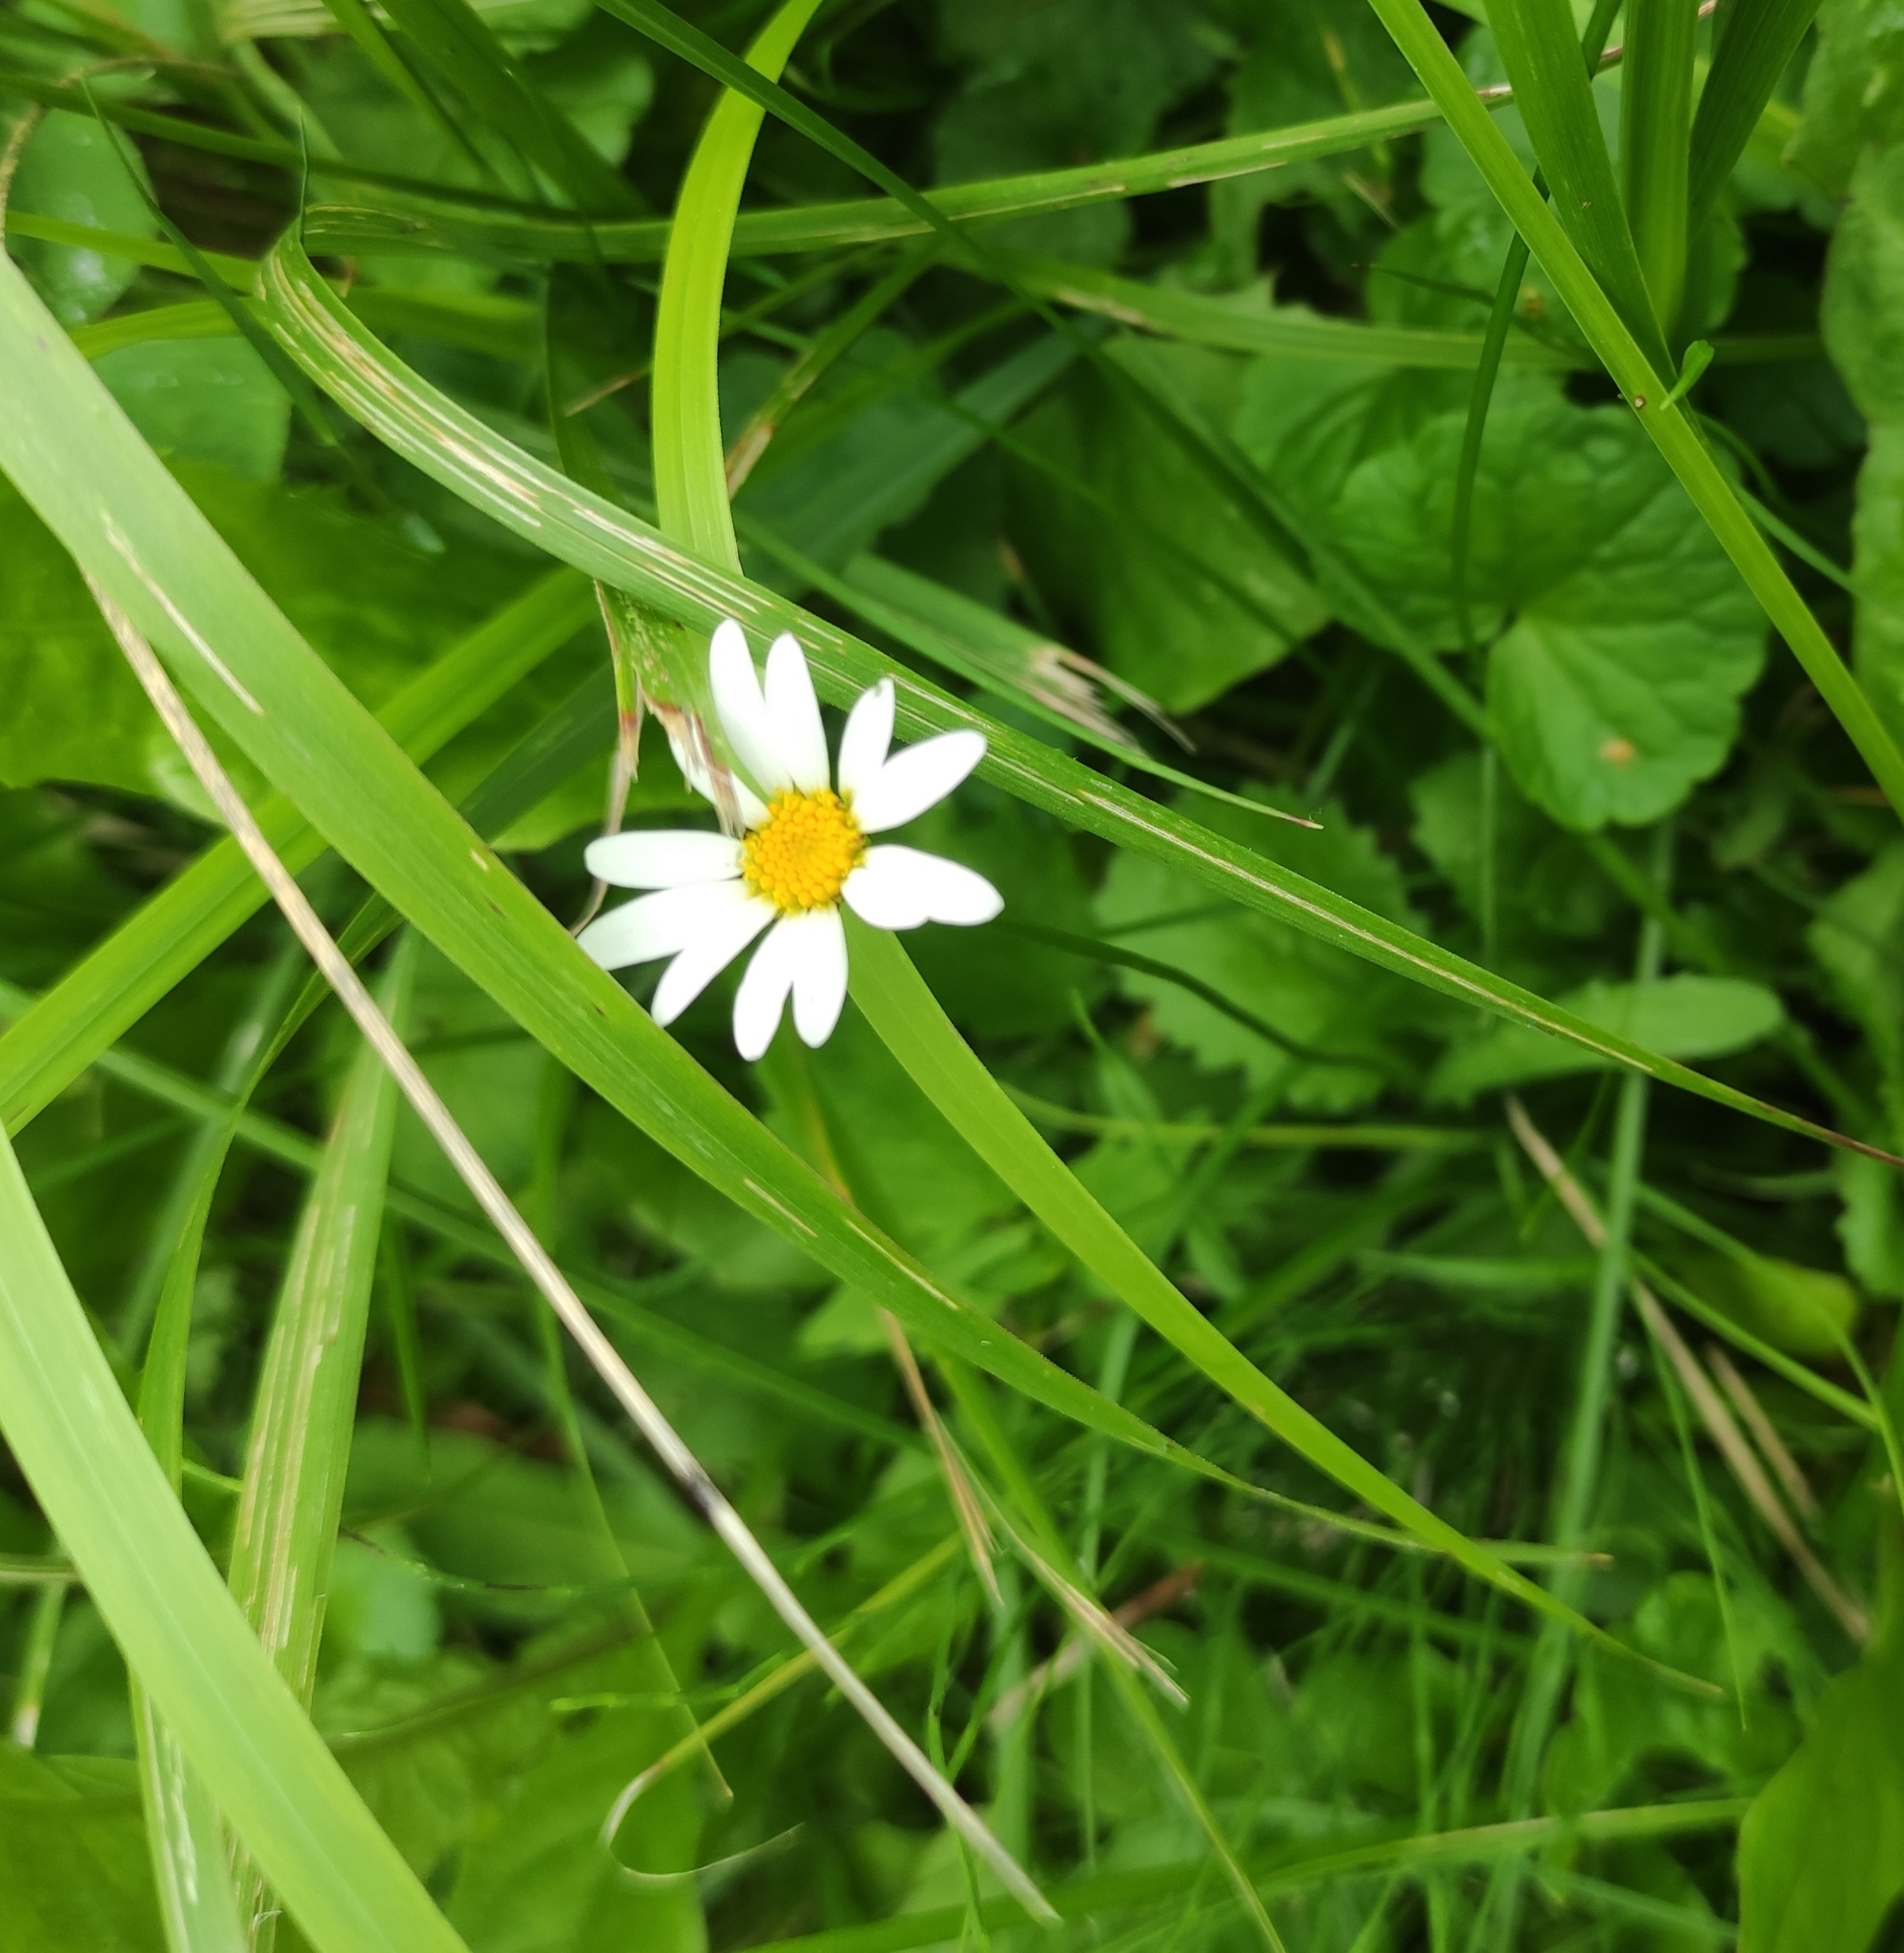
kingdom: Plantae
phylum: Tracheophyta
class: Magnoliopsida
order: Asterales
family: Asteraceae
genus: Leucanthemum
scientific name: Leucanthemum vulgare
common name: Oxeye daisy
